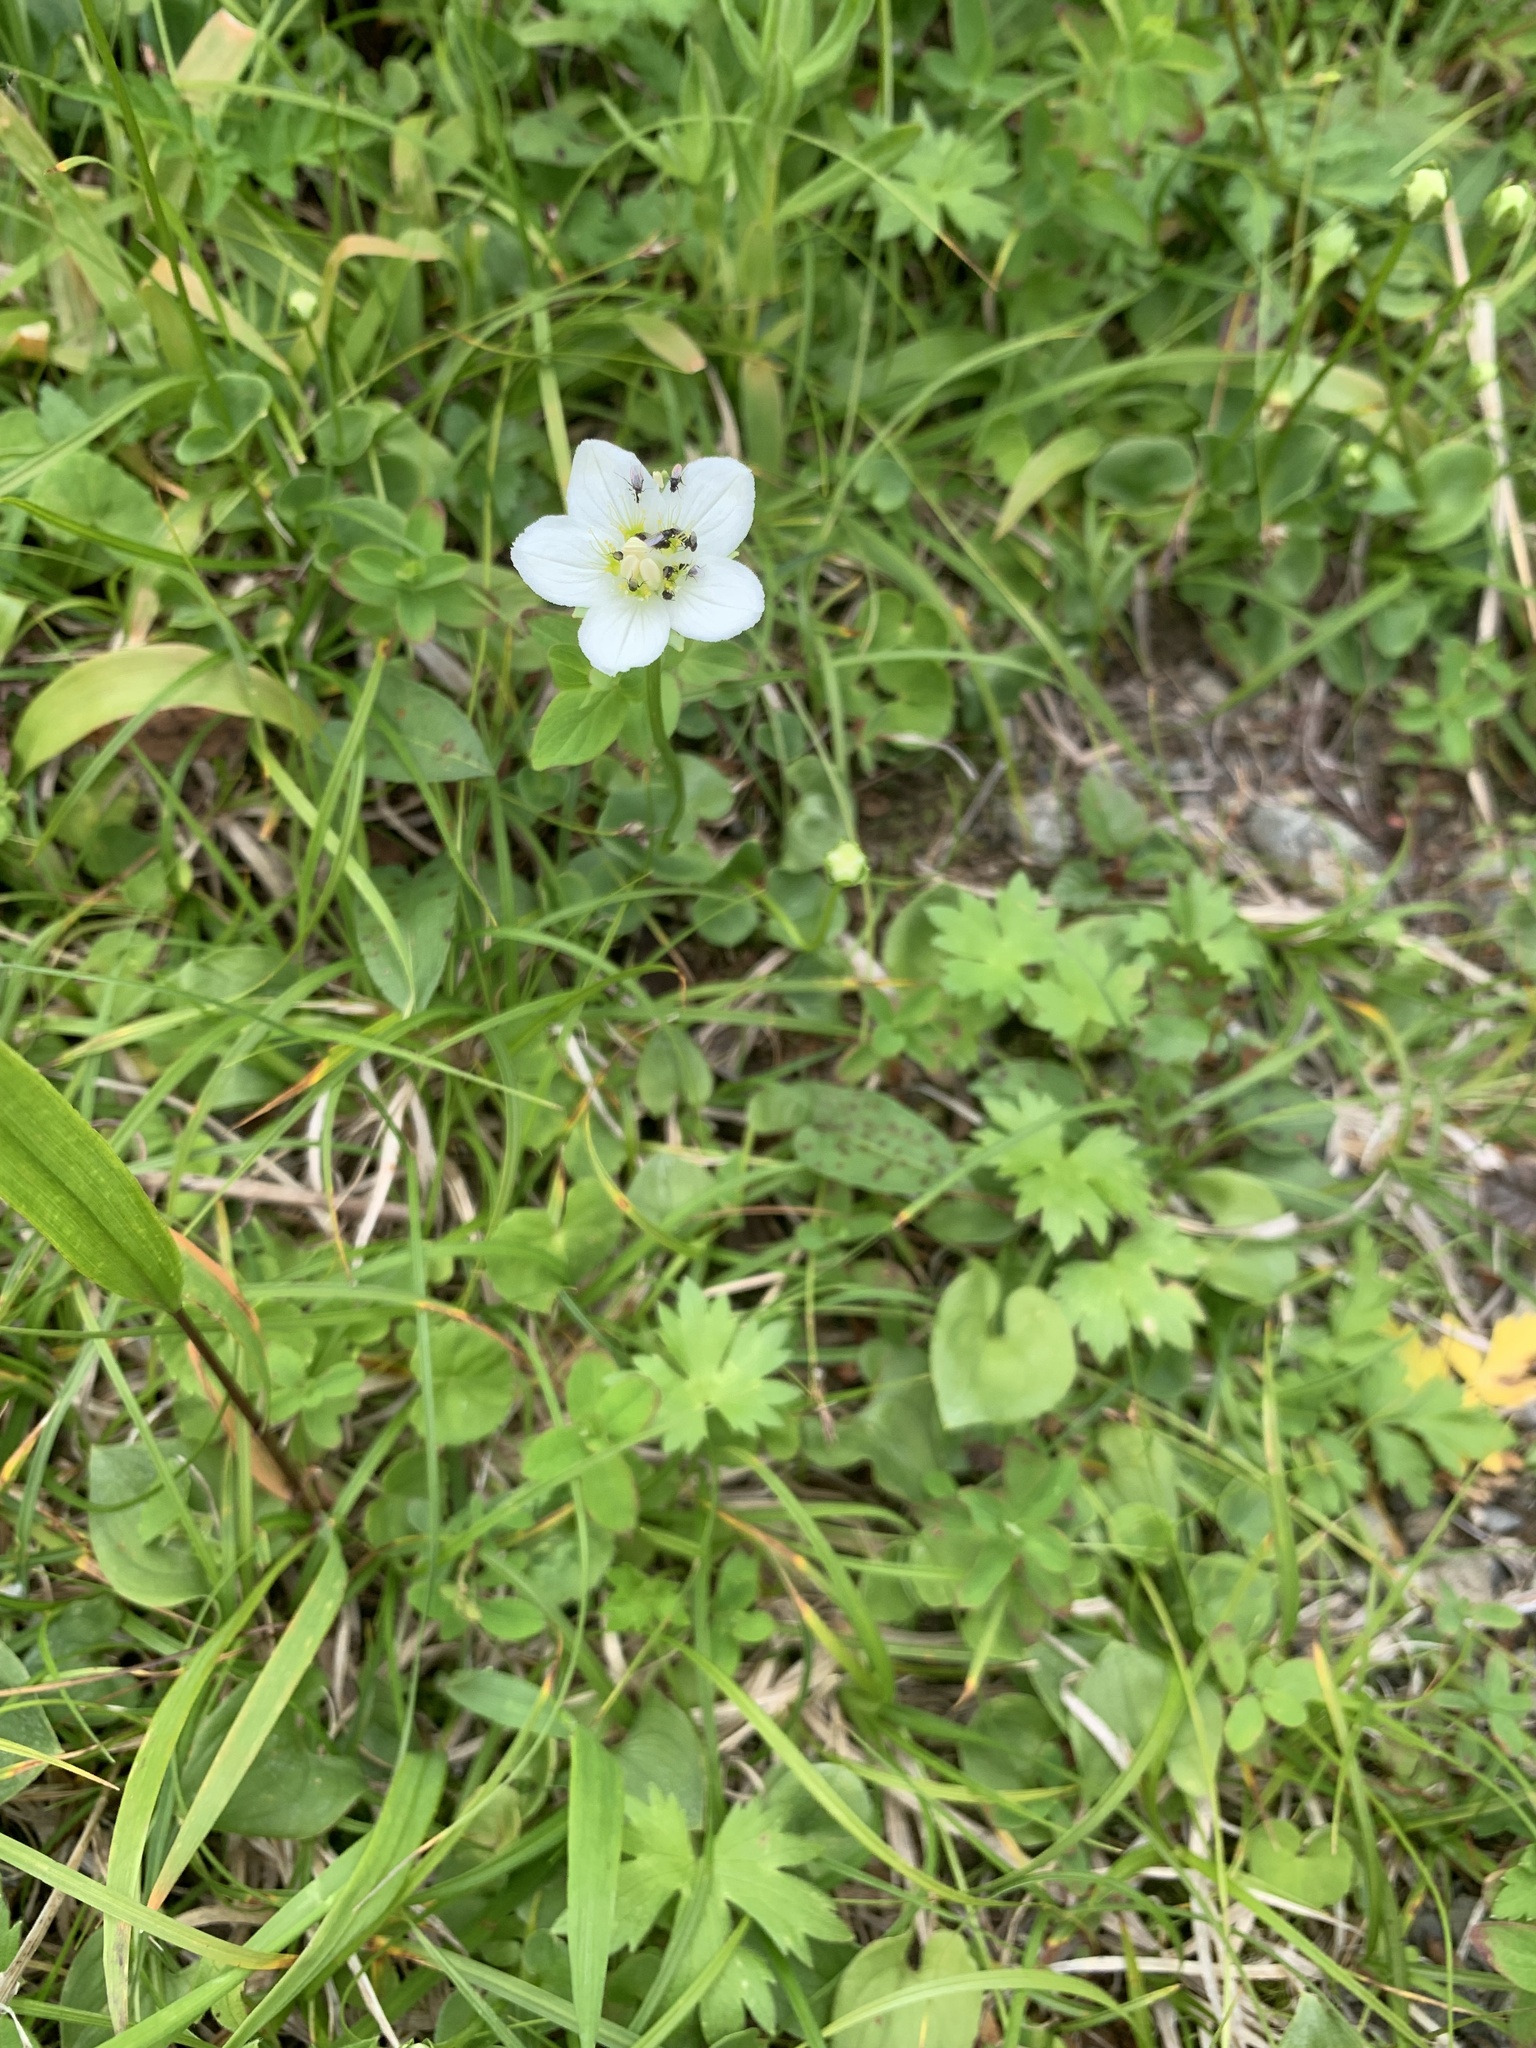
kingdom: Plantae
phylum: Tracheophyta
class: Magnoliopsida
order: Celastrales
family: Parnassiaceae
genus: Parnassia
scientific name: Parnassia palustris
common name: Grass-of-parnassus
